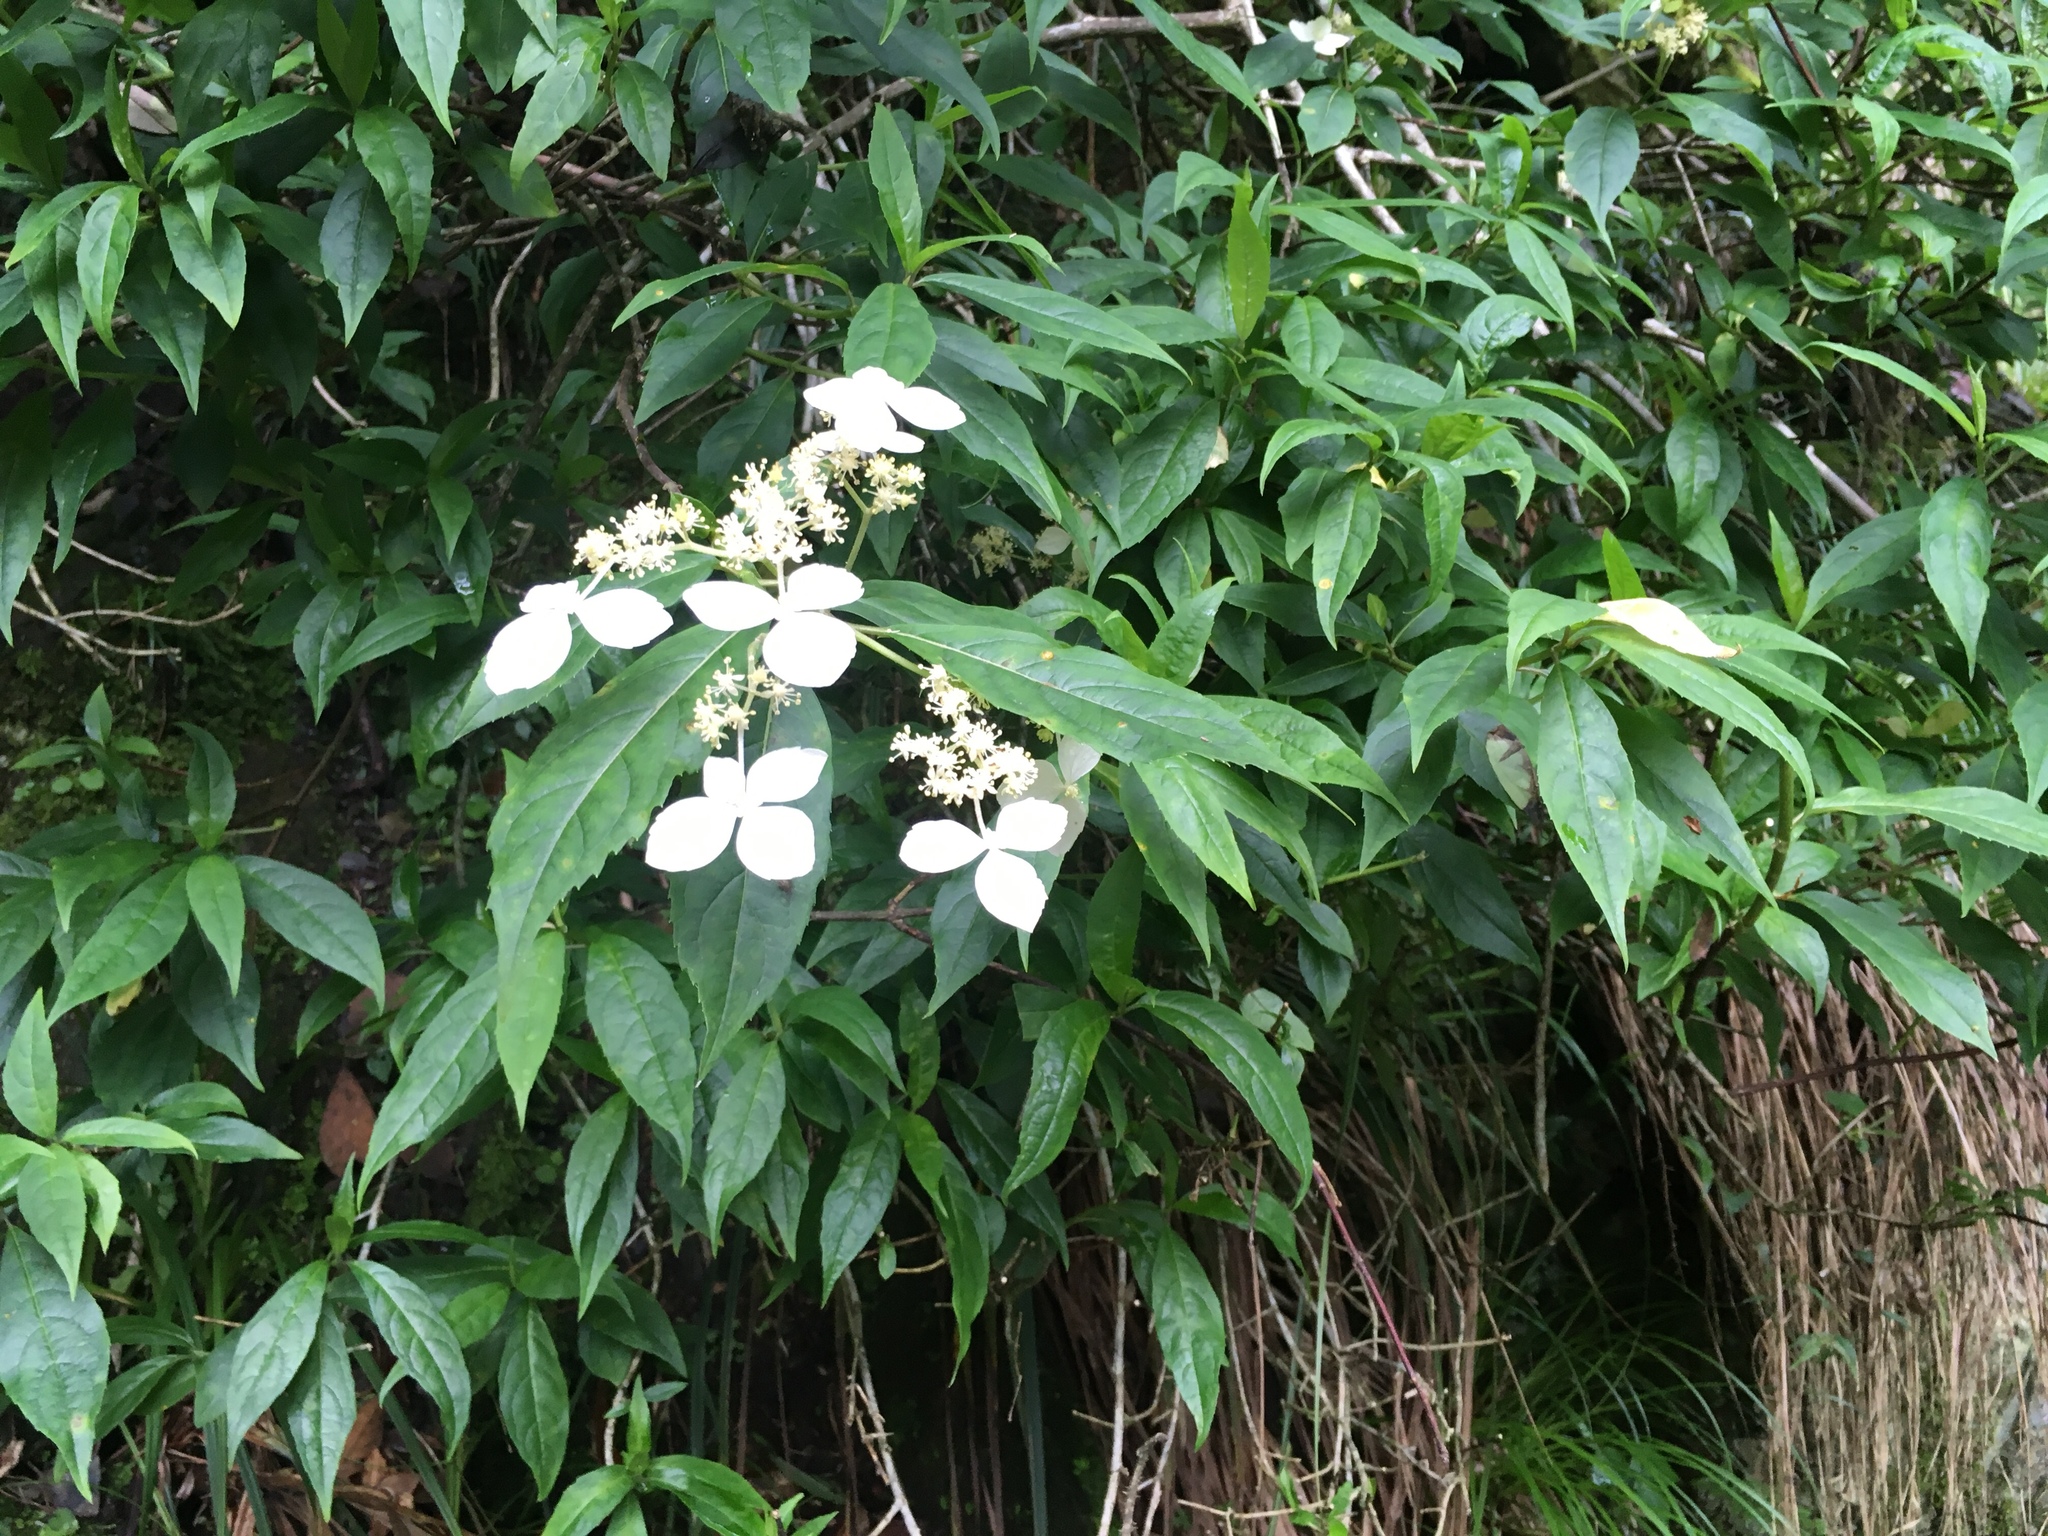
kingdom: Plantae
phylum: Tracheophyta
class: Magnoliopsida
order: Cornales
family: Hydrangeaceae
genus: Hydrangea
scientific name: Hydrangea chinensis
